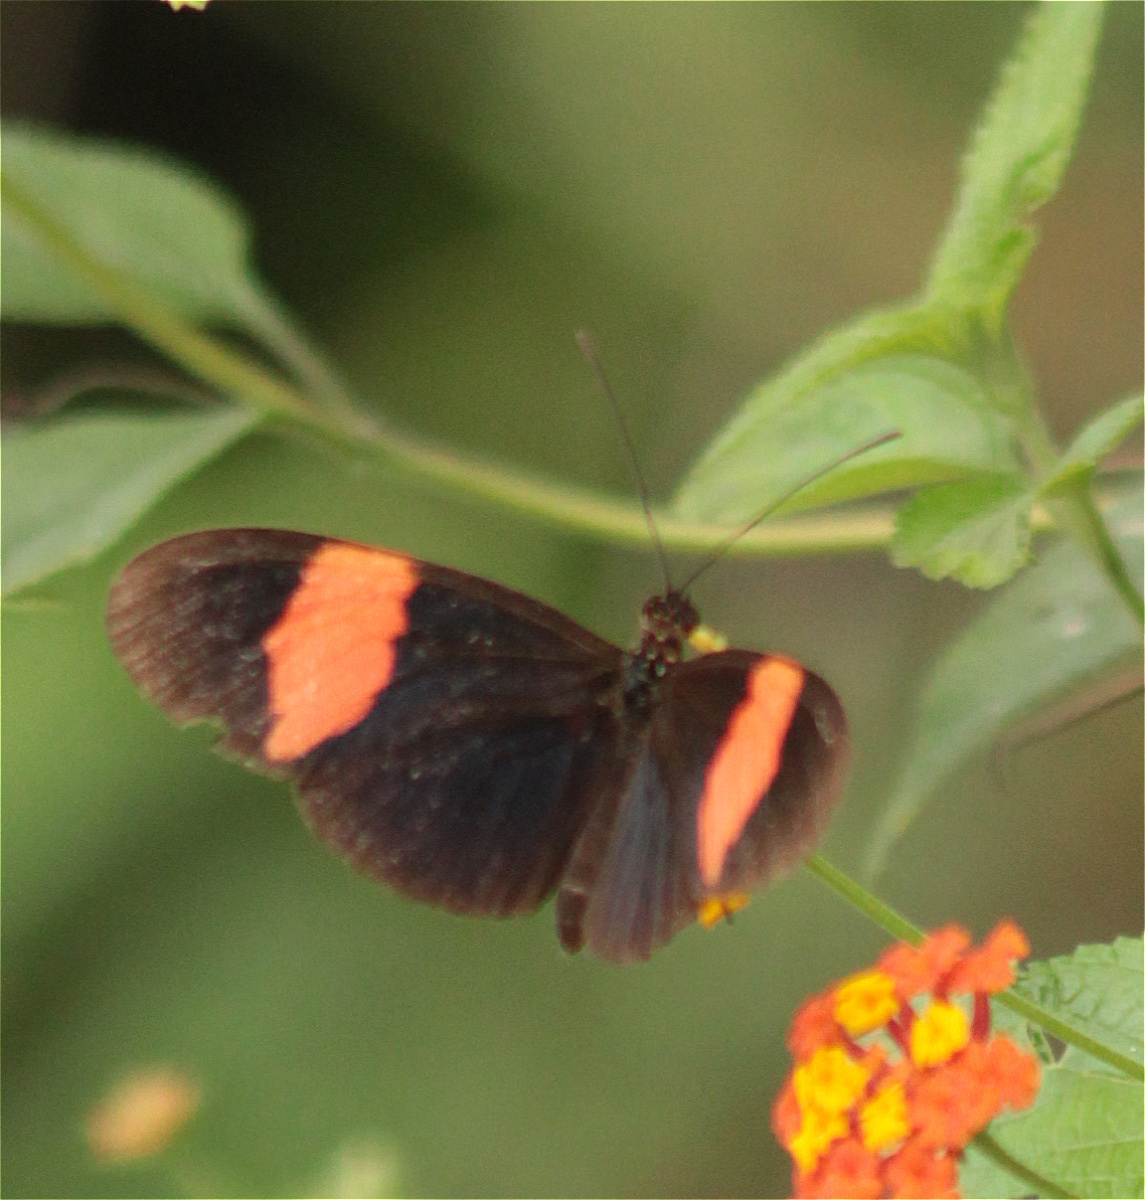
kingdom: Animalia
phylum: Arthropoda
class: Insecta
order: Lepidoptera
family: Nymphalidae
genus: Heliconius
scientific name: Heliconius erato
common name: Common patch longwing
